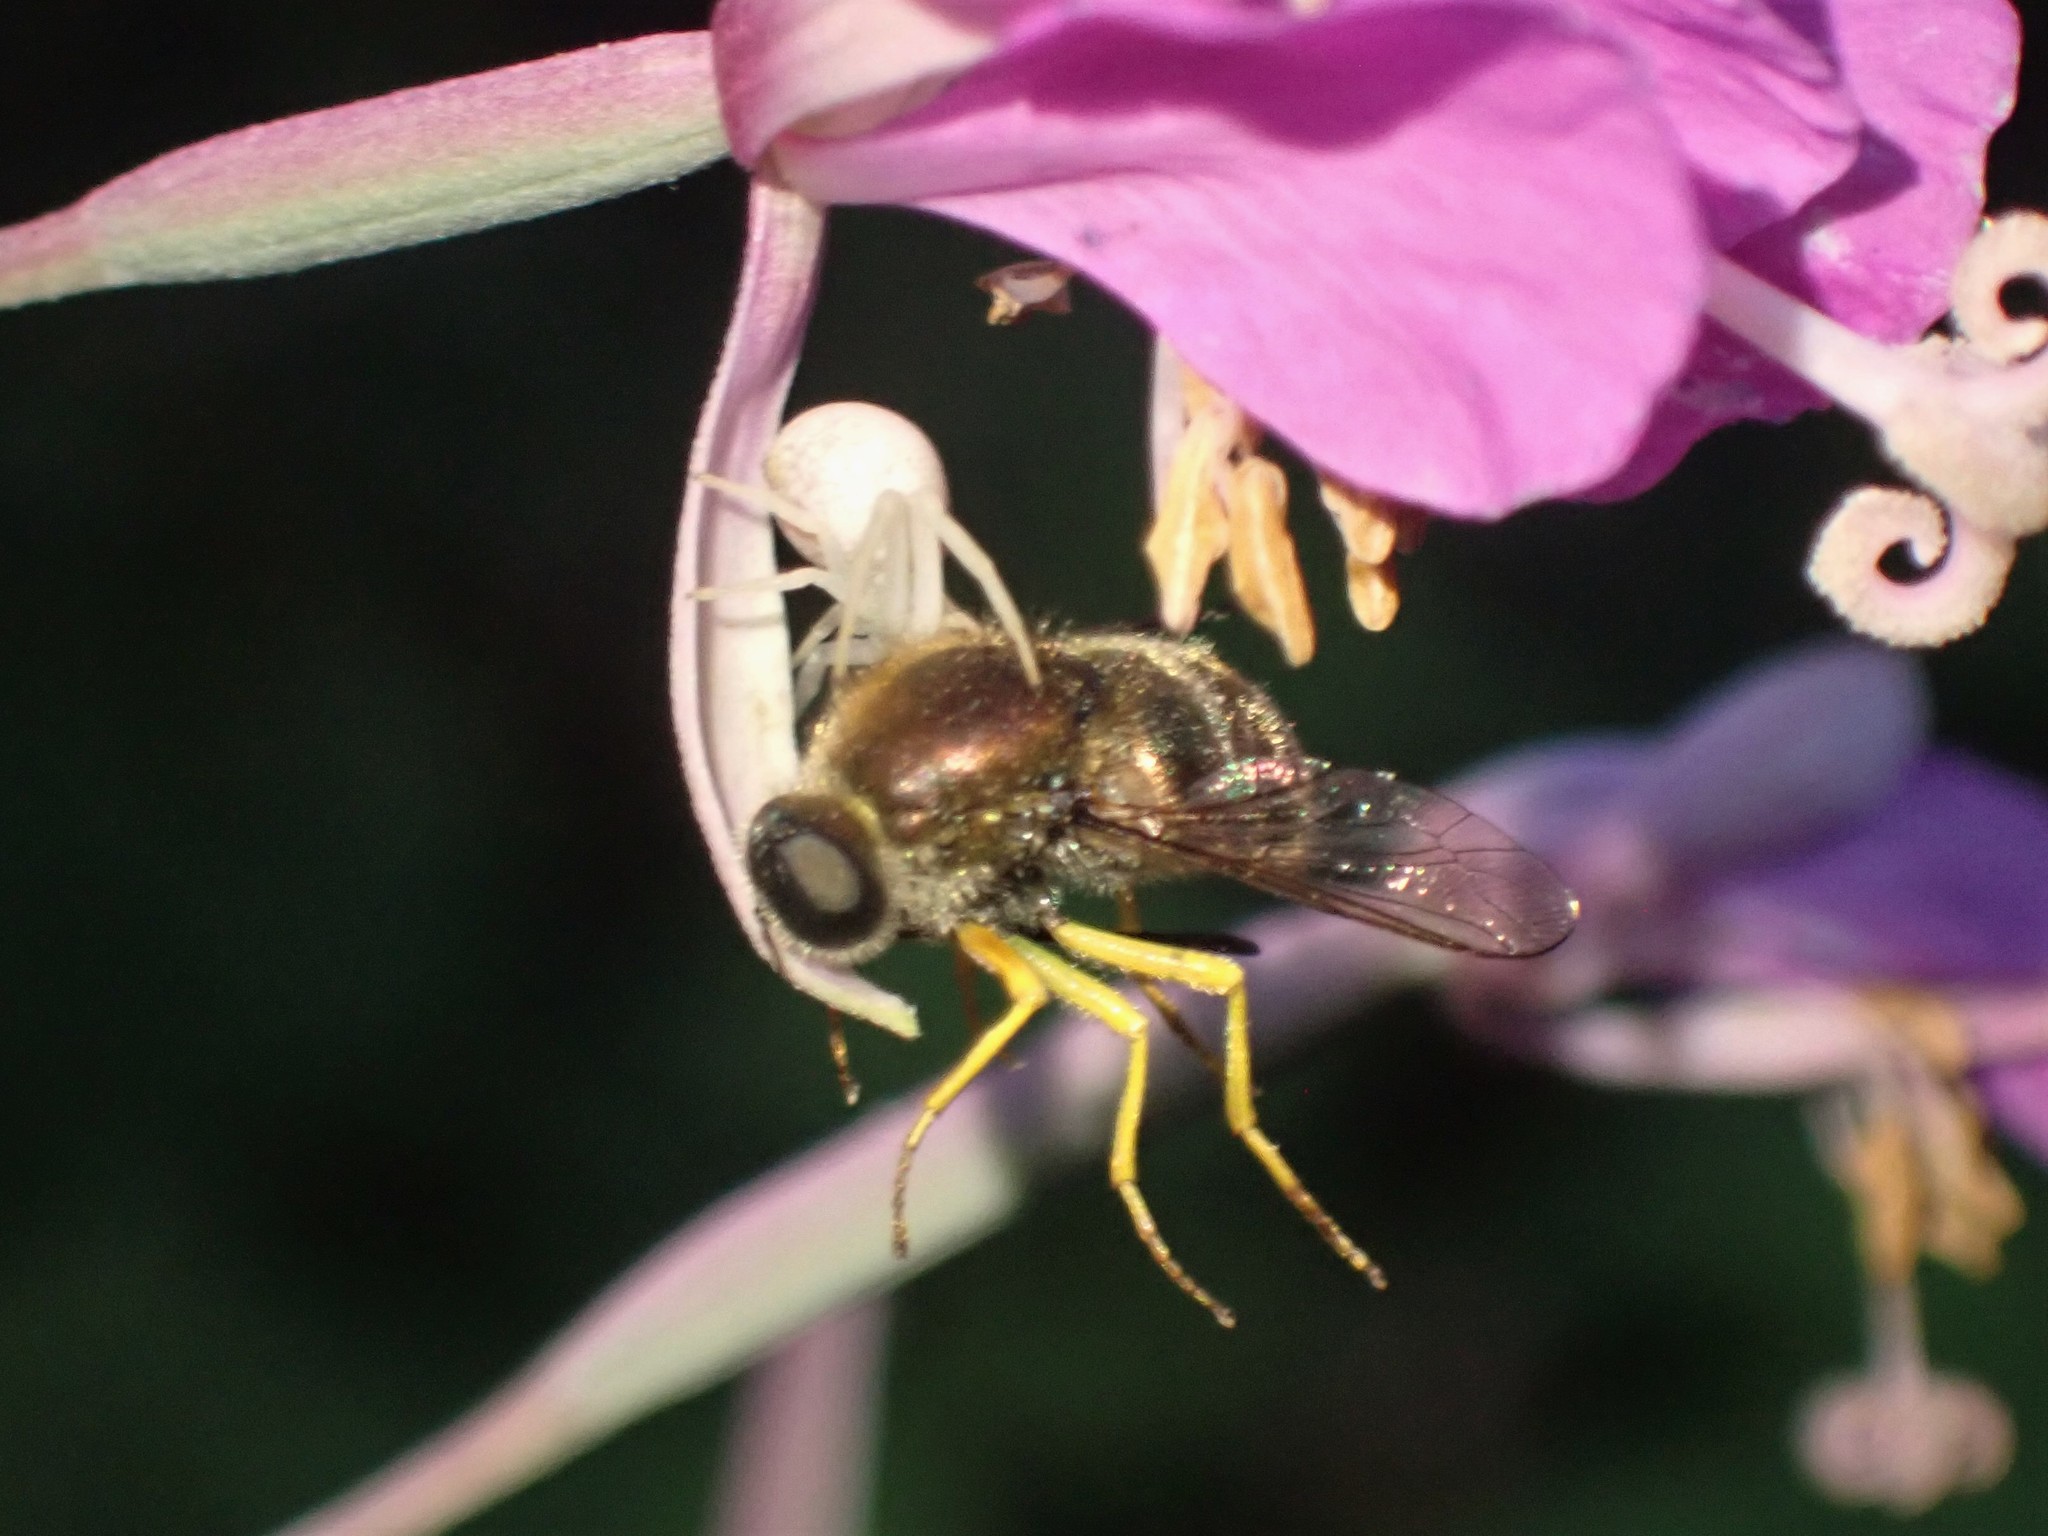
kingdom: Animalia
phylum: Arthropoda
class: Insecta
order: Diptera
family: Acroceridae
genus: Eulonchus
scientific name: Eulonchus sapphirinus
